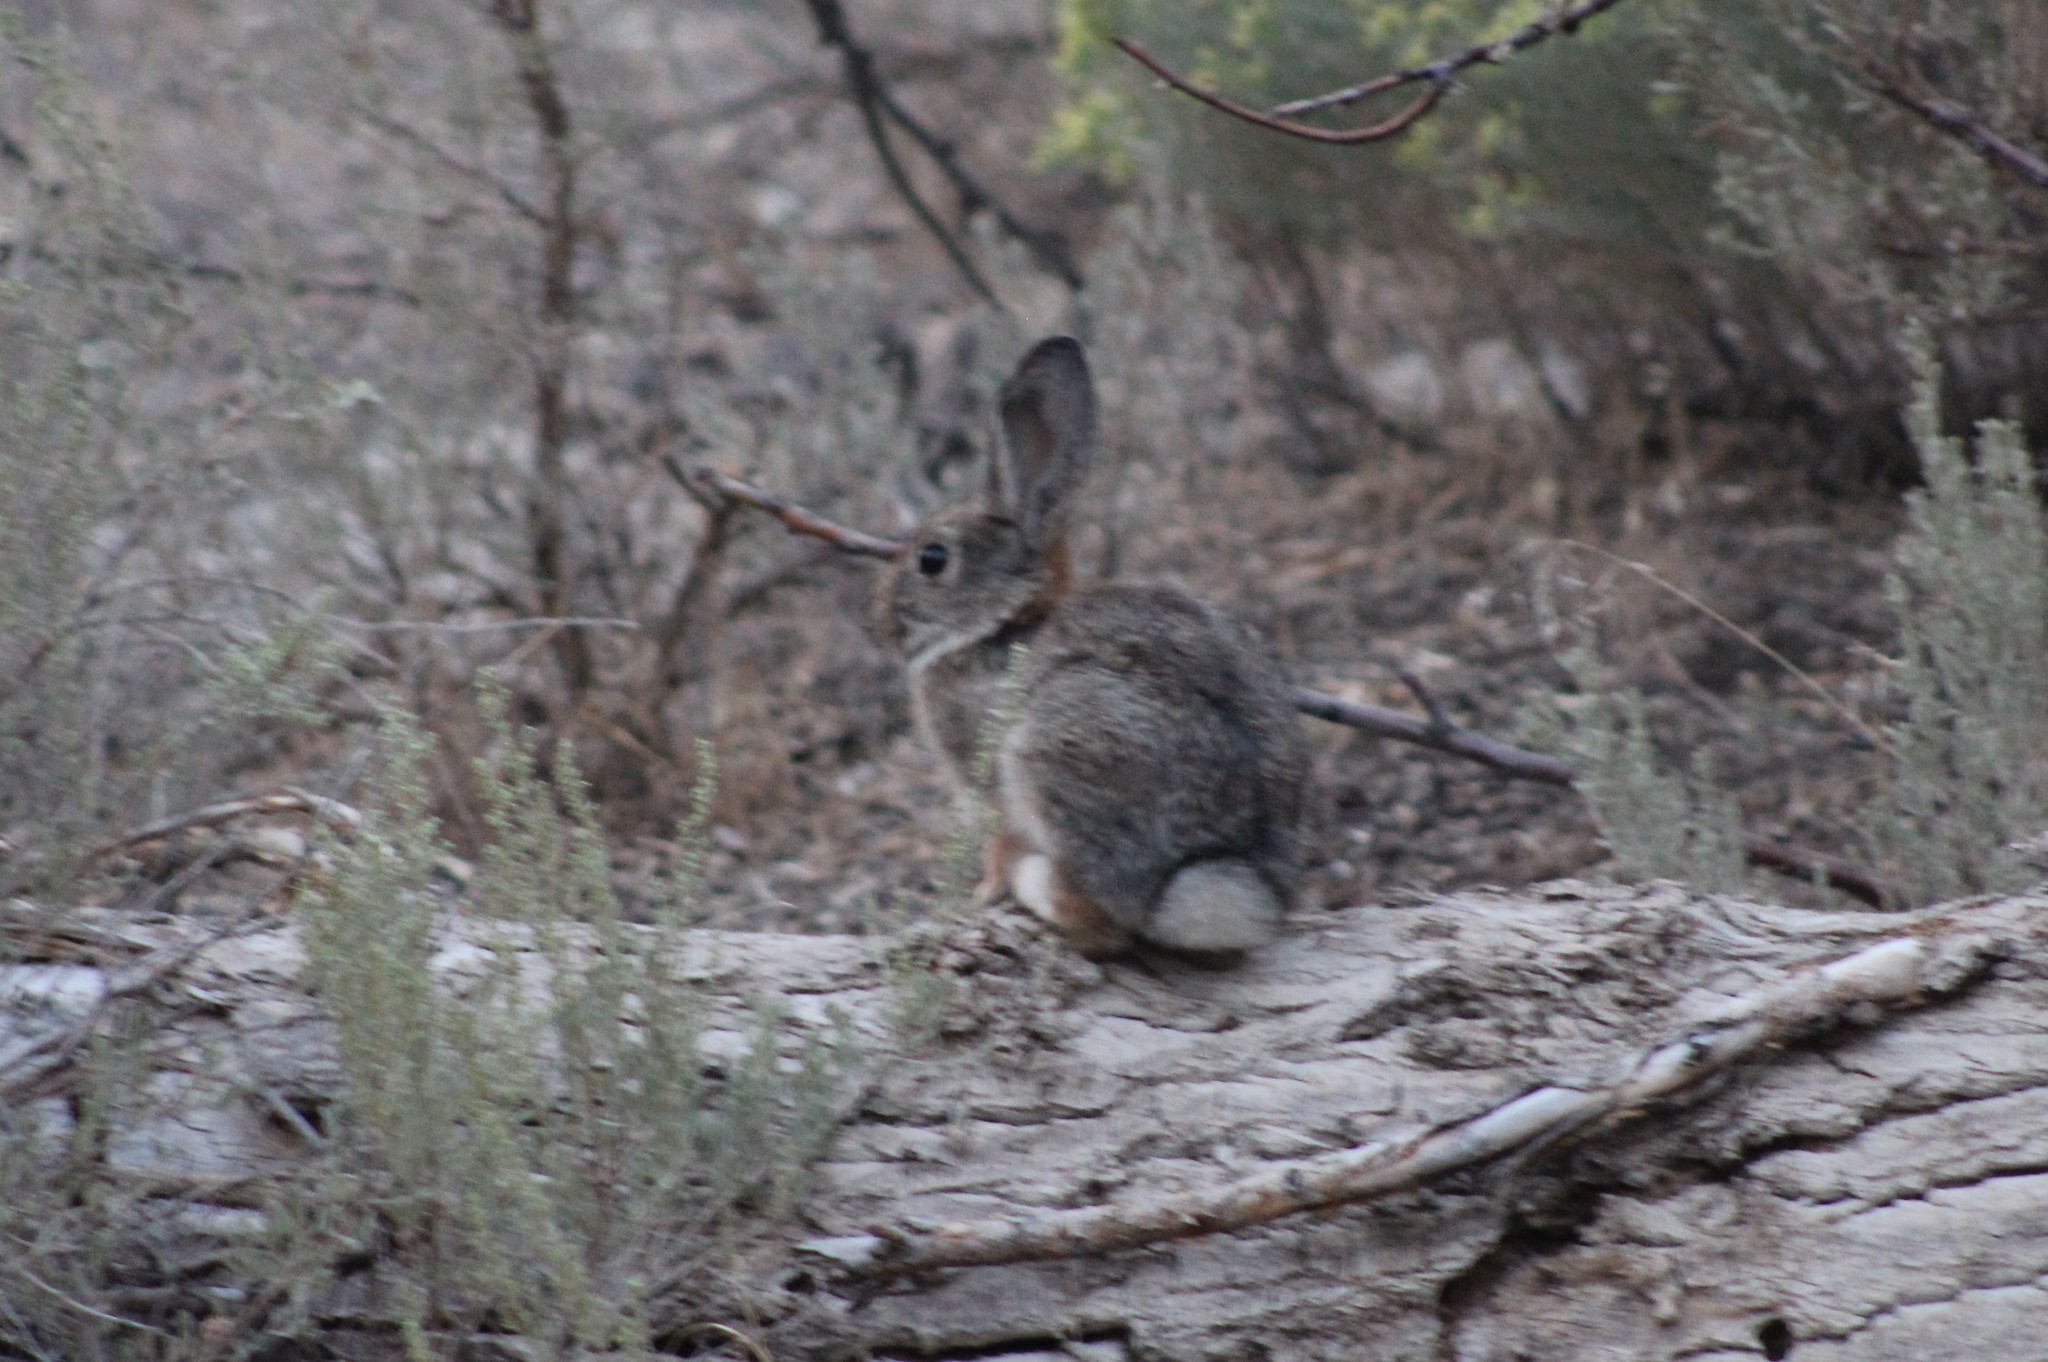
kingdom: Animalia
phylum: Chordata
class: Mammalia
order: Lagomorpha
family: Leporidae
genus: Sylvilagus
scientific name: Sylvilagus nuttallii
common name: Mountain cottontail
